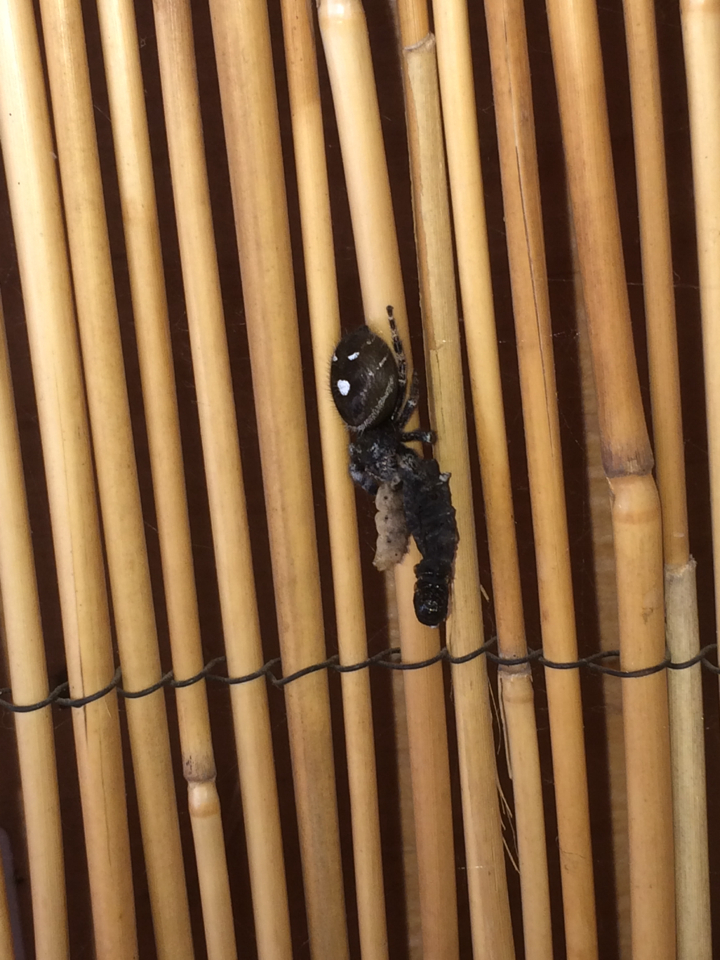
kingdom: Animalia
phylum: Arthropoda
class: Arachnida
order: Araneae
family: Salticidae
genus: Phidippus
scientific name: Phidippus audax
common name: Bold jumper
